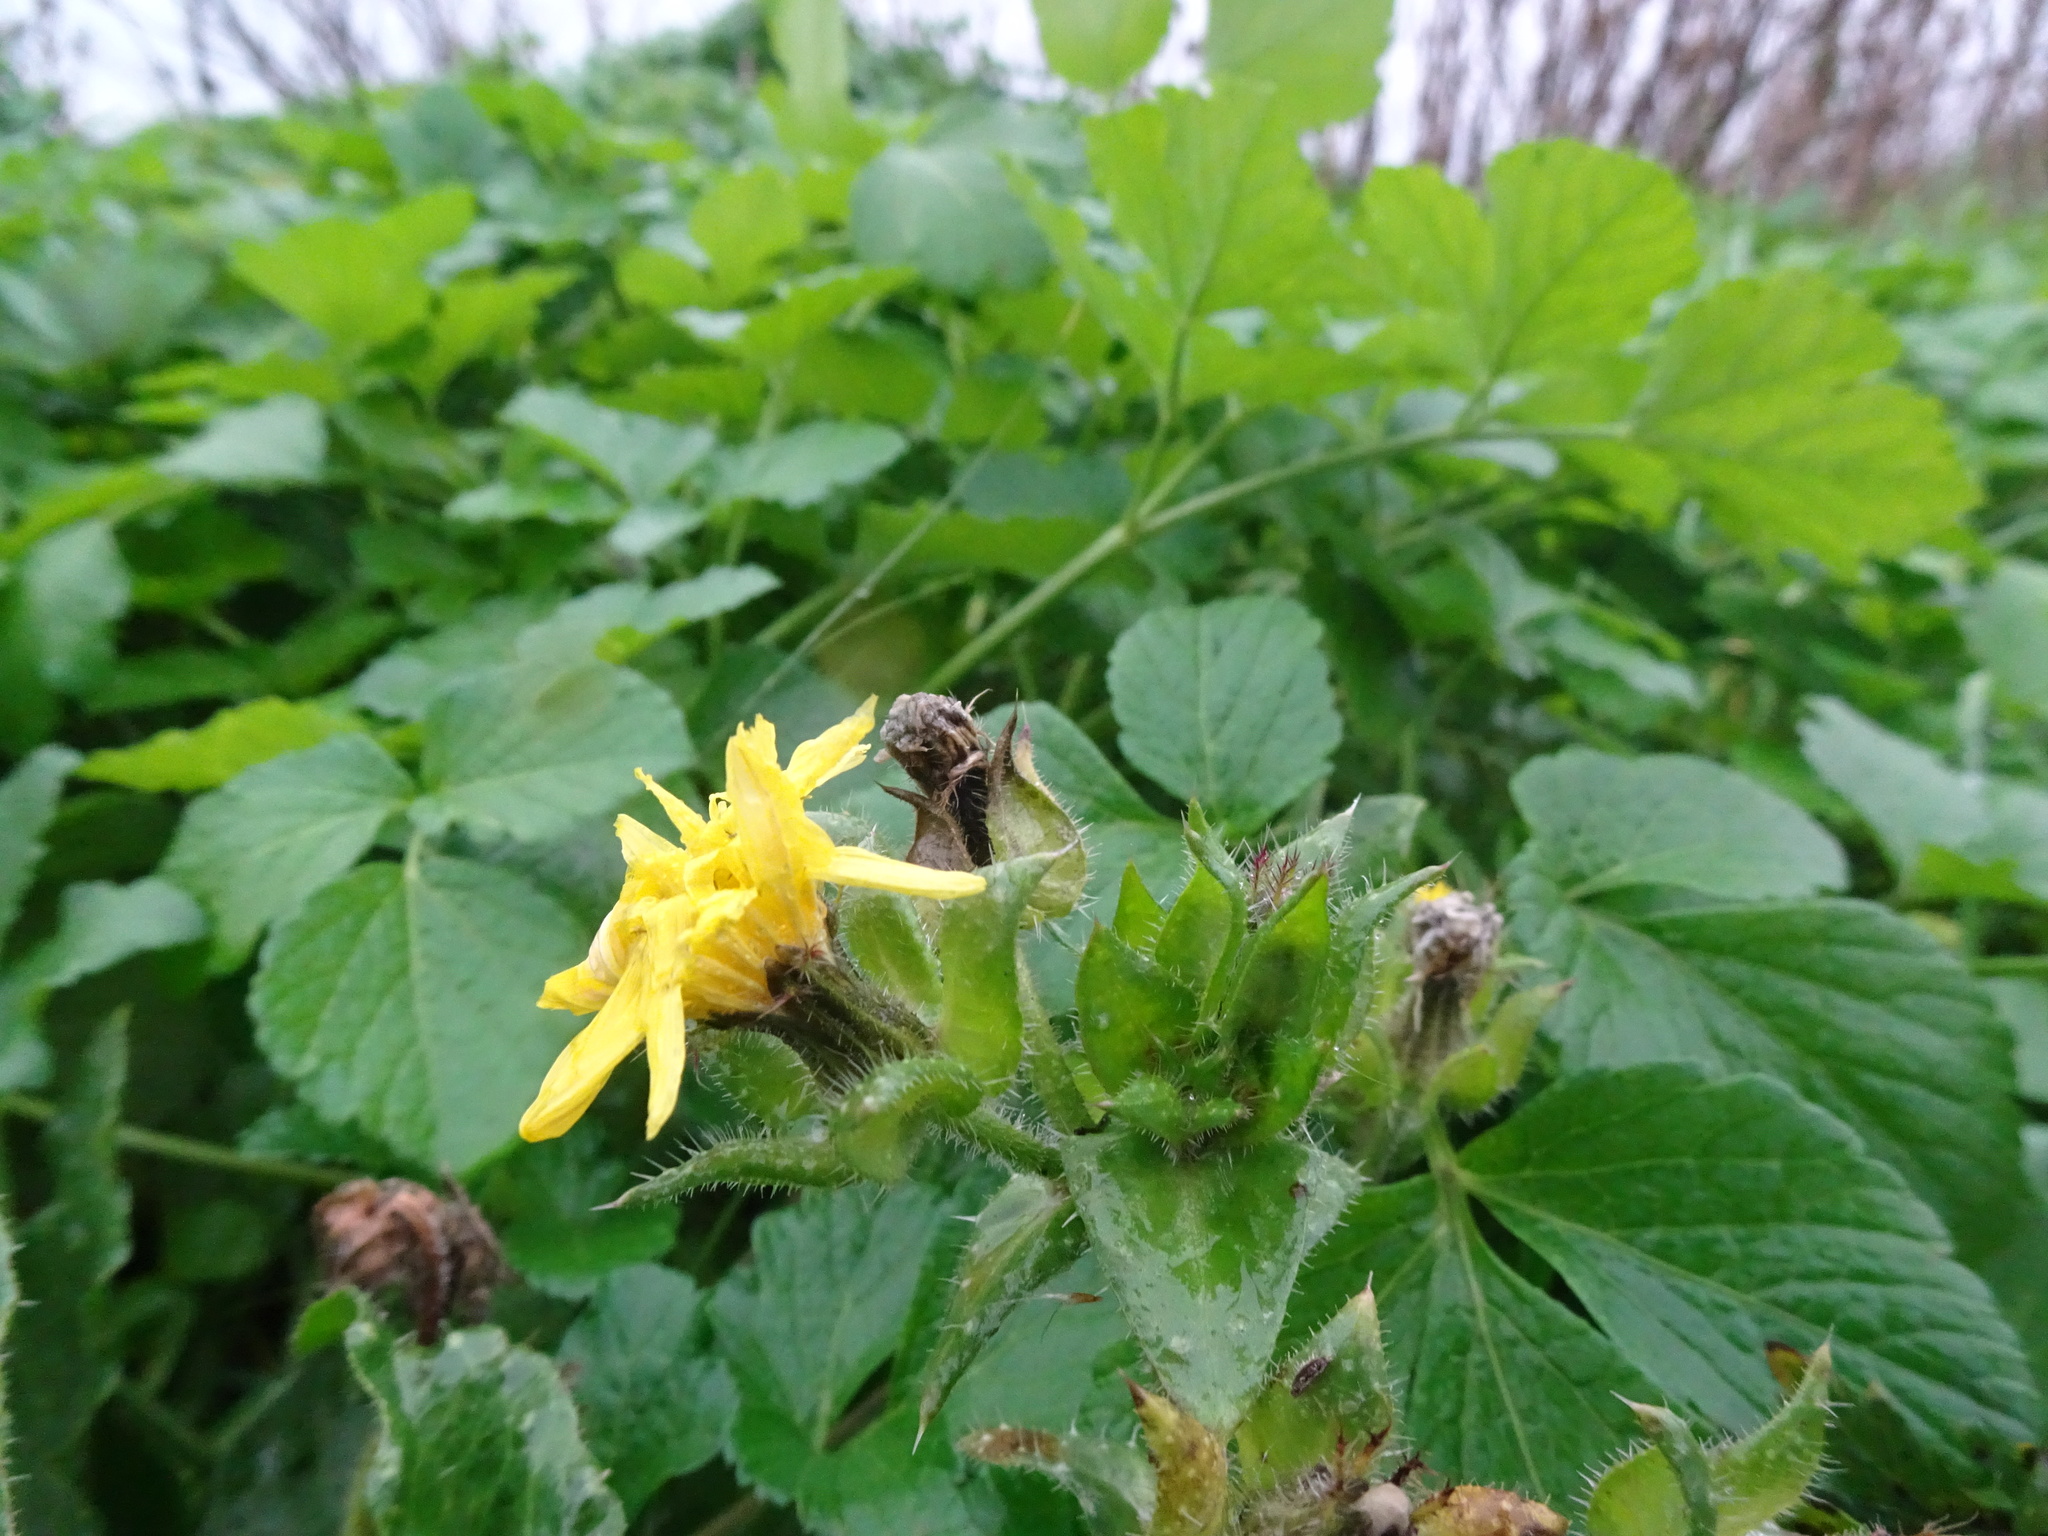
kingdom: Plantae
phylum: Tracheophyta
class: Magnoliopsida
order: Asterales
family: Asteraceae
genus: Helminthotheca
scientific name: Helminthotheca echioides
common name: Ox-tongue
